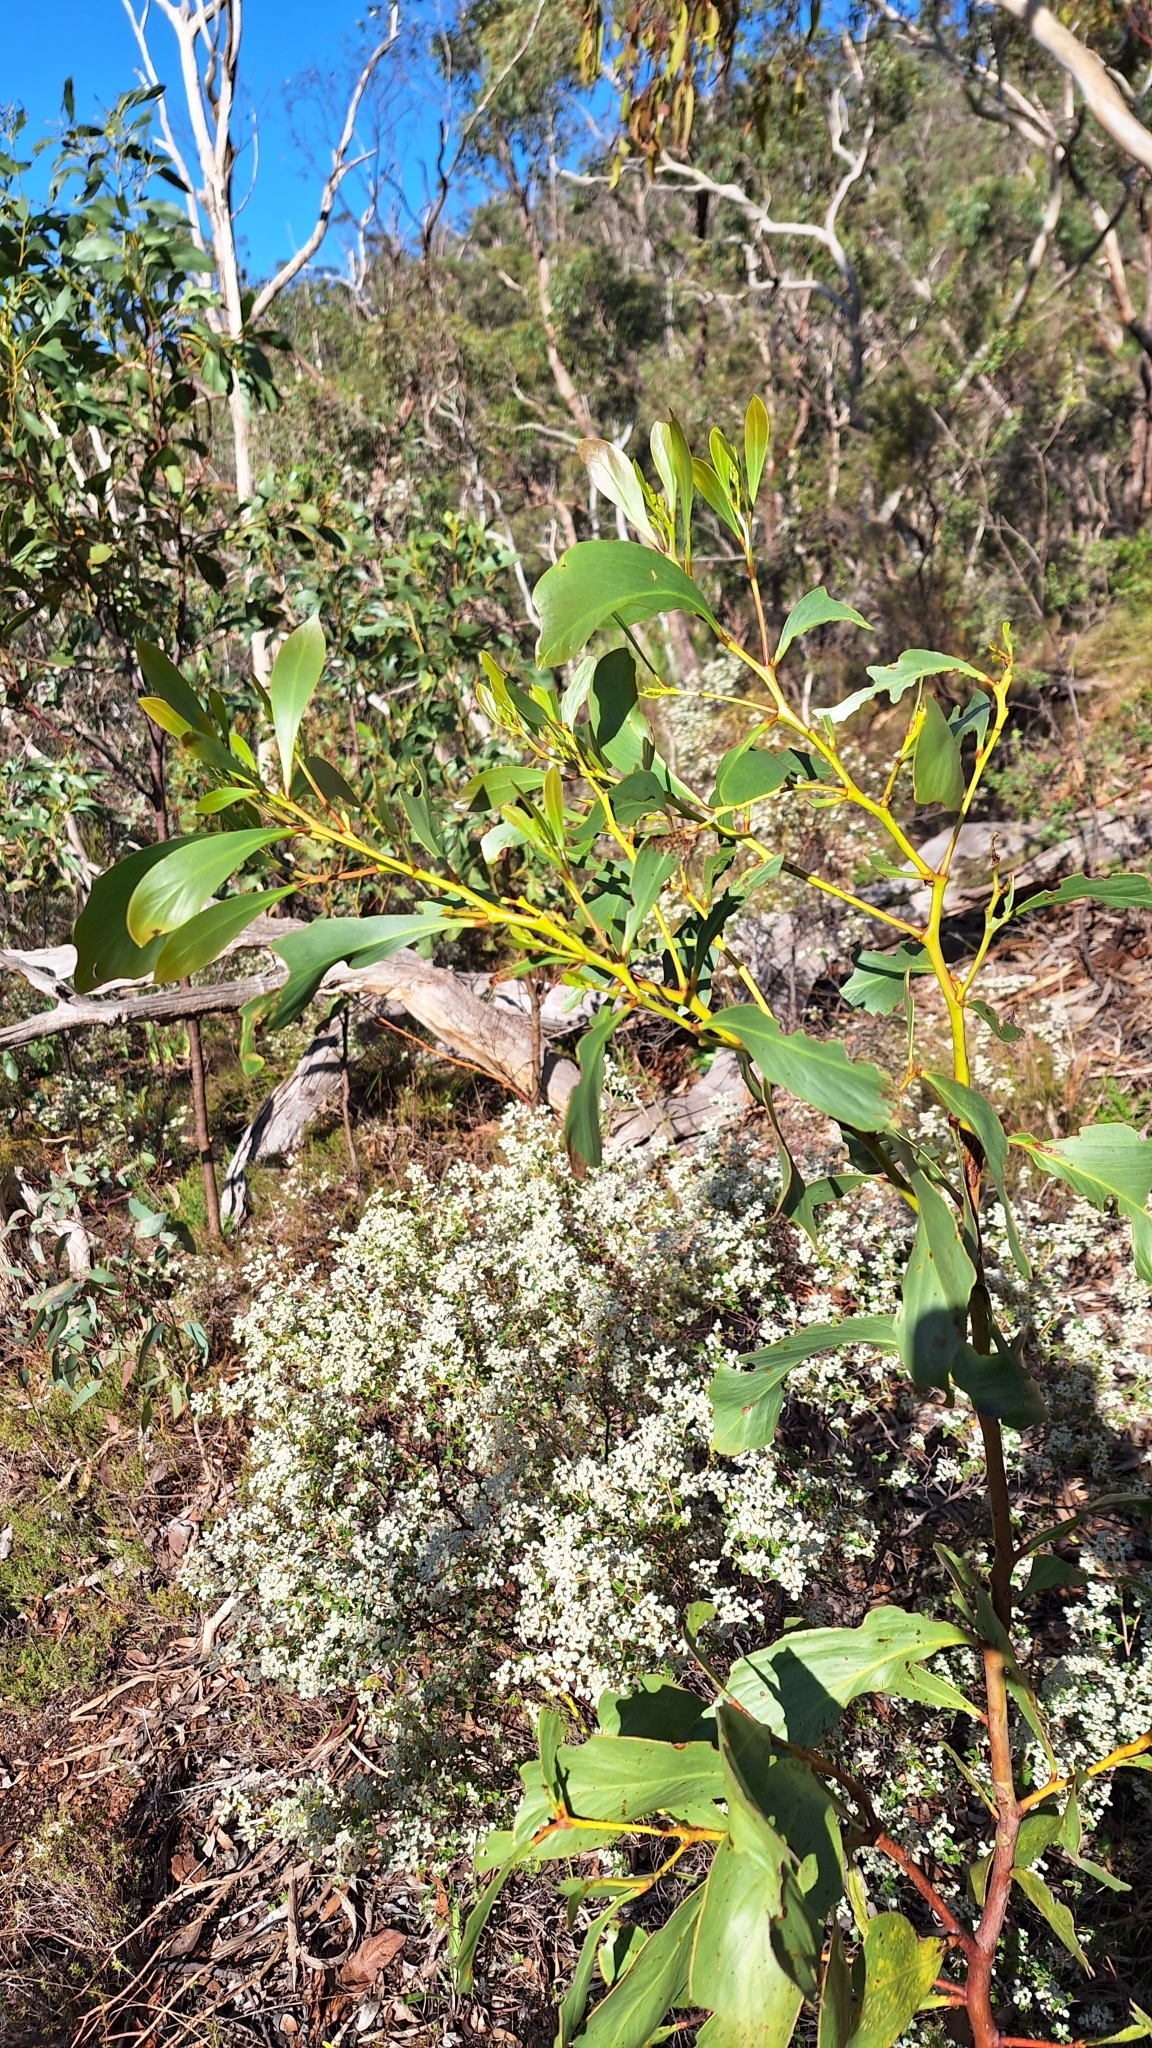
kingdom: Plantae
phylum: Tracheophyta
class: Magnoliopsida
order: Fabales
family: Fabaceae
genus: Acacia
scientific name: Acacia pycnantha
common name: Golden wattle
